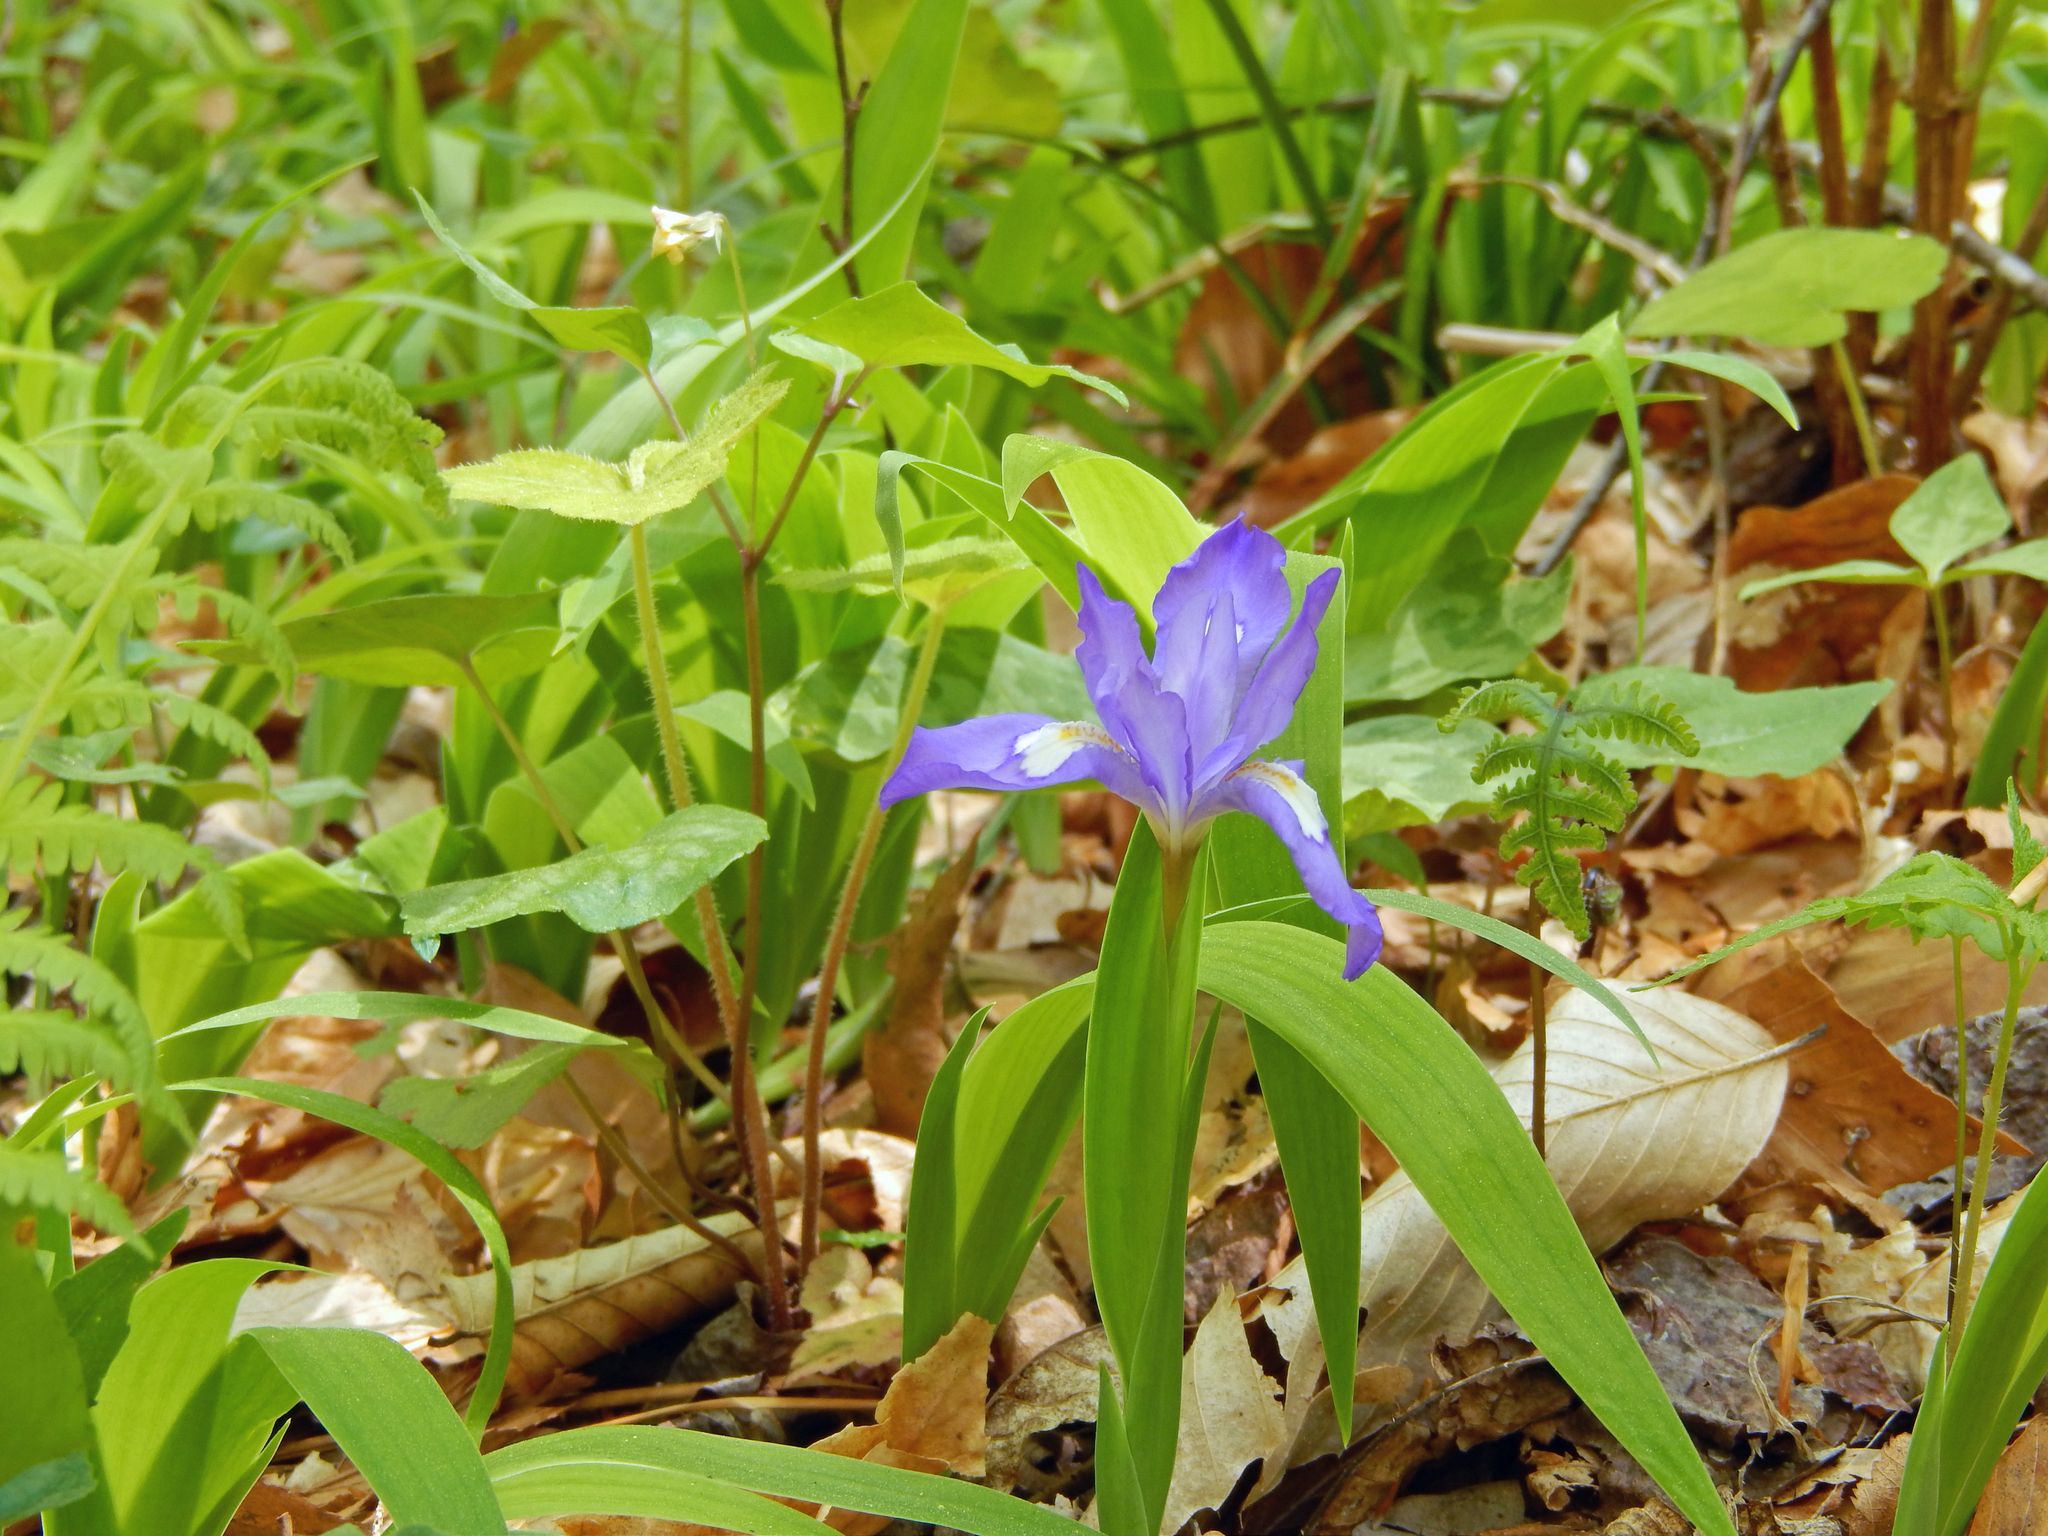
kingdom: Plantae
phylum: Tracheophyta
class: Liliopsida
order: Asparagales
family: Iridaceae
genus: Iris
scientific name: Iris cristata
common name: Crested iris
